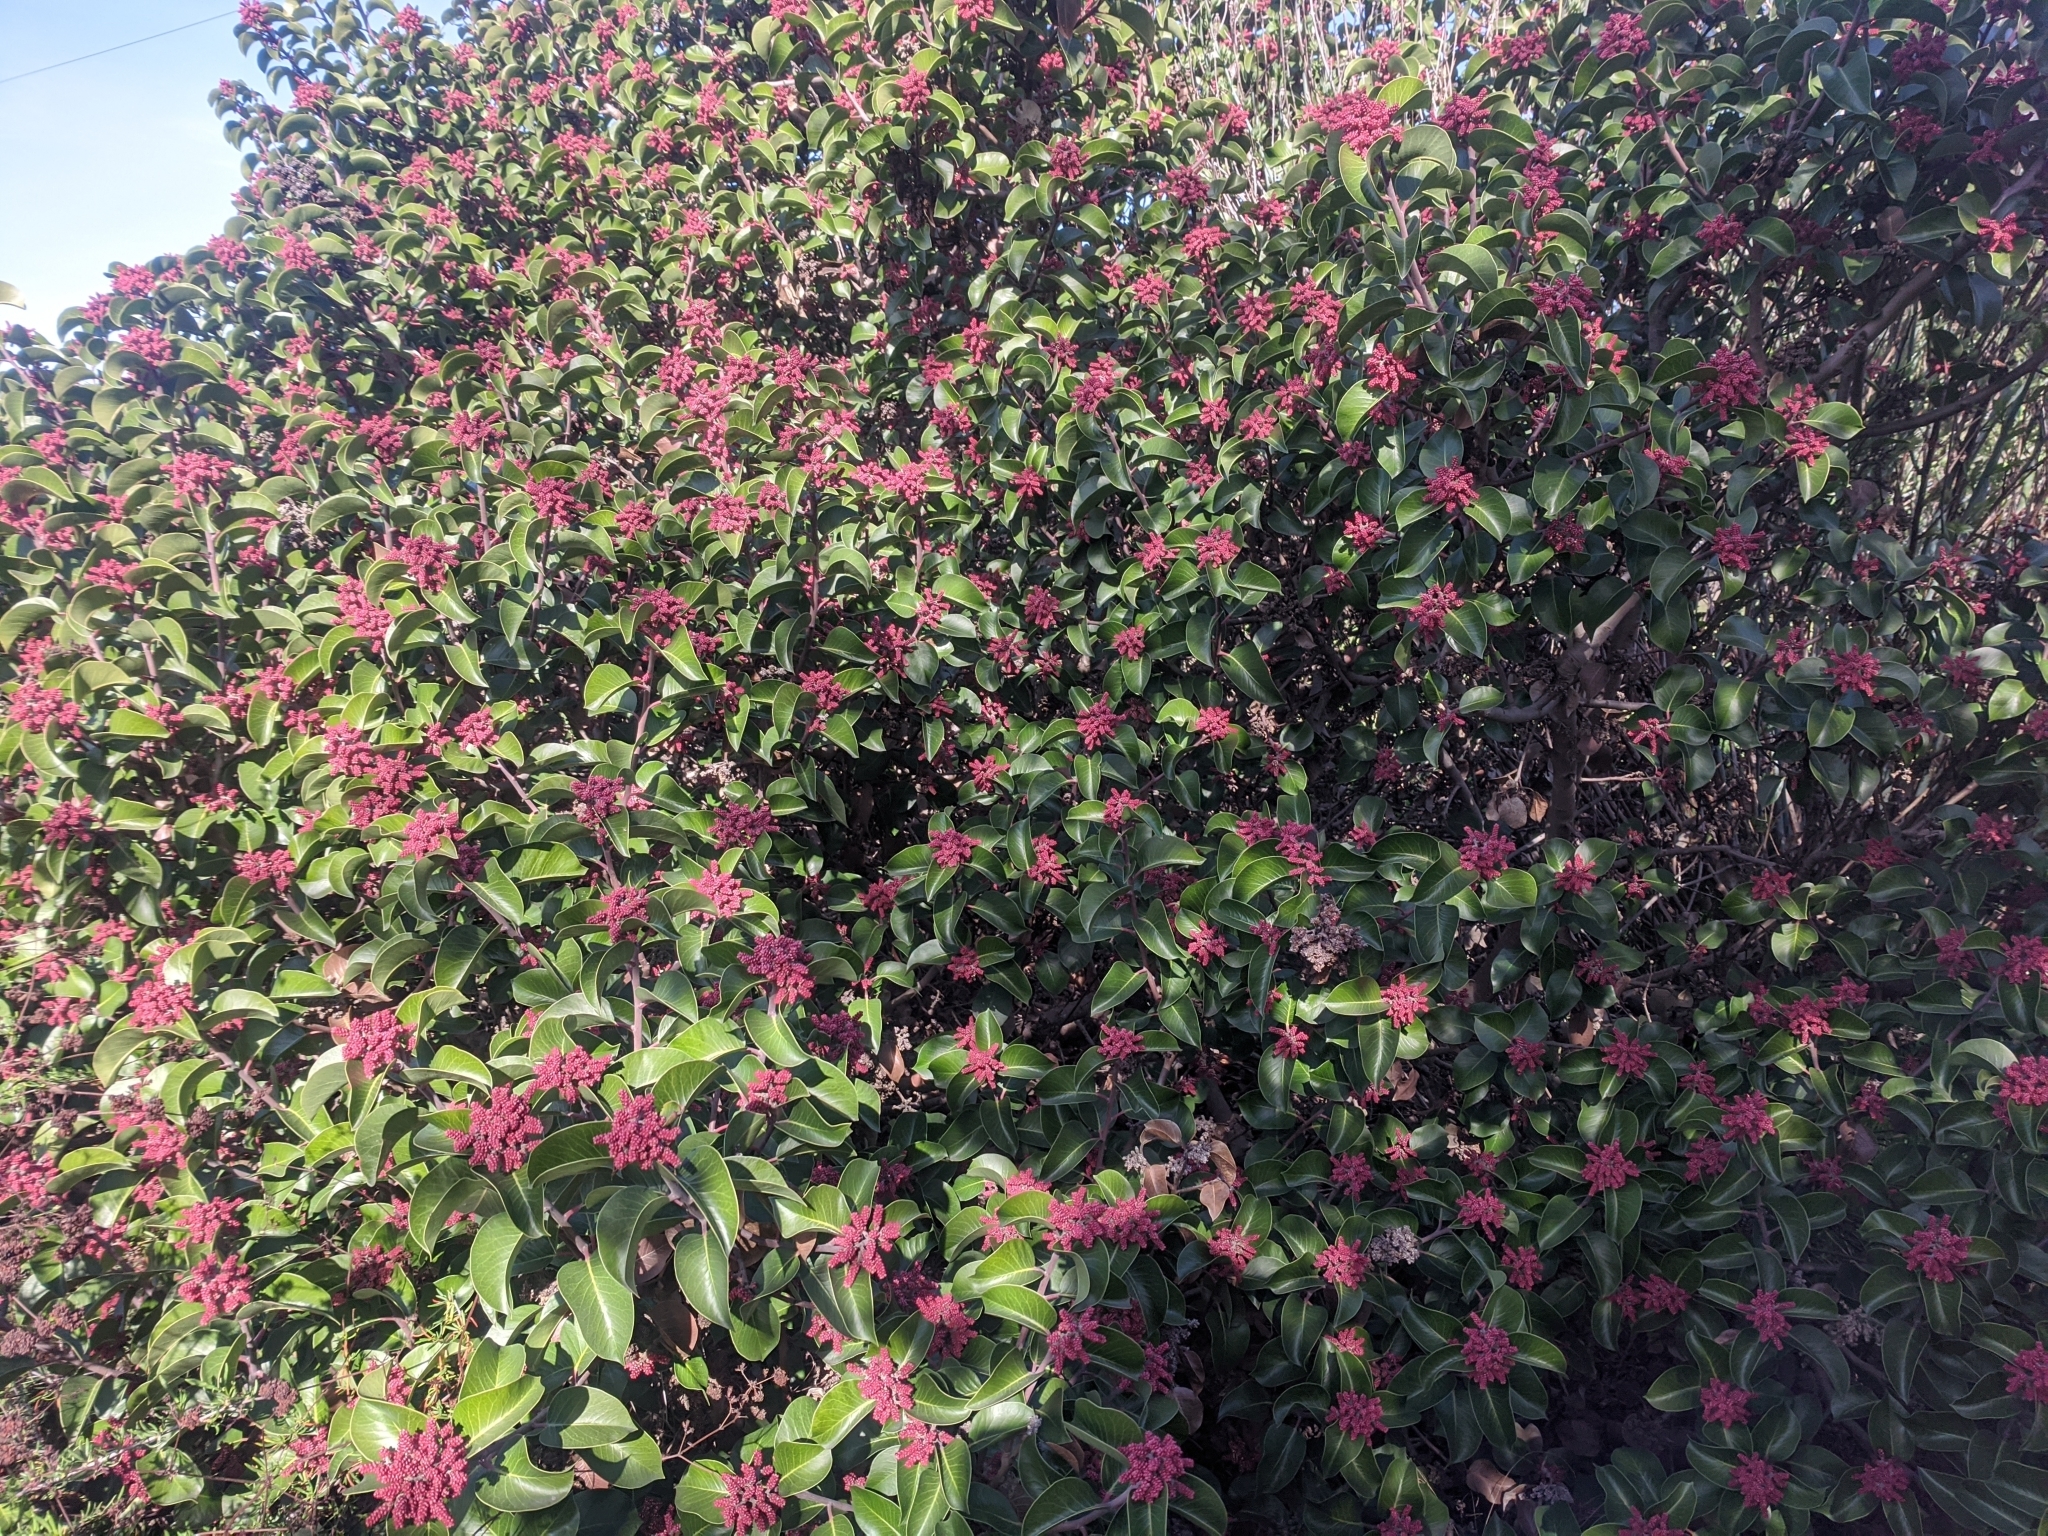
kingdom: Plantae
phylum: Tracheophyta
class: Magnoliopsida
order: Sapindales
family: Anacardiaceae
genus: Rhus
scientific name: Rhus ovata
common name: Sugar sumac
